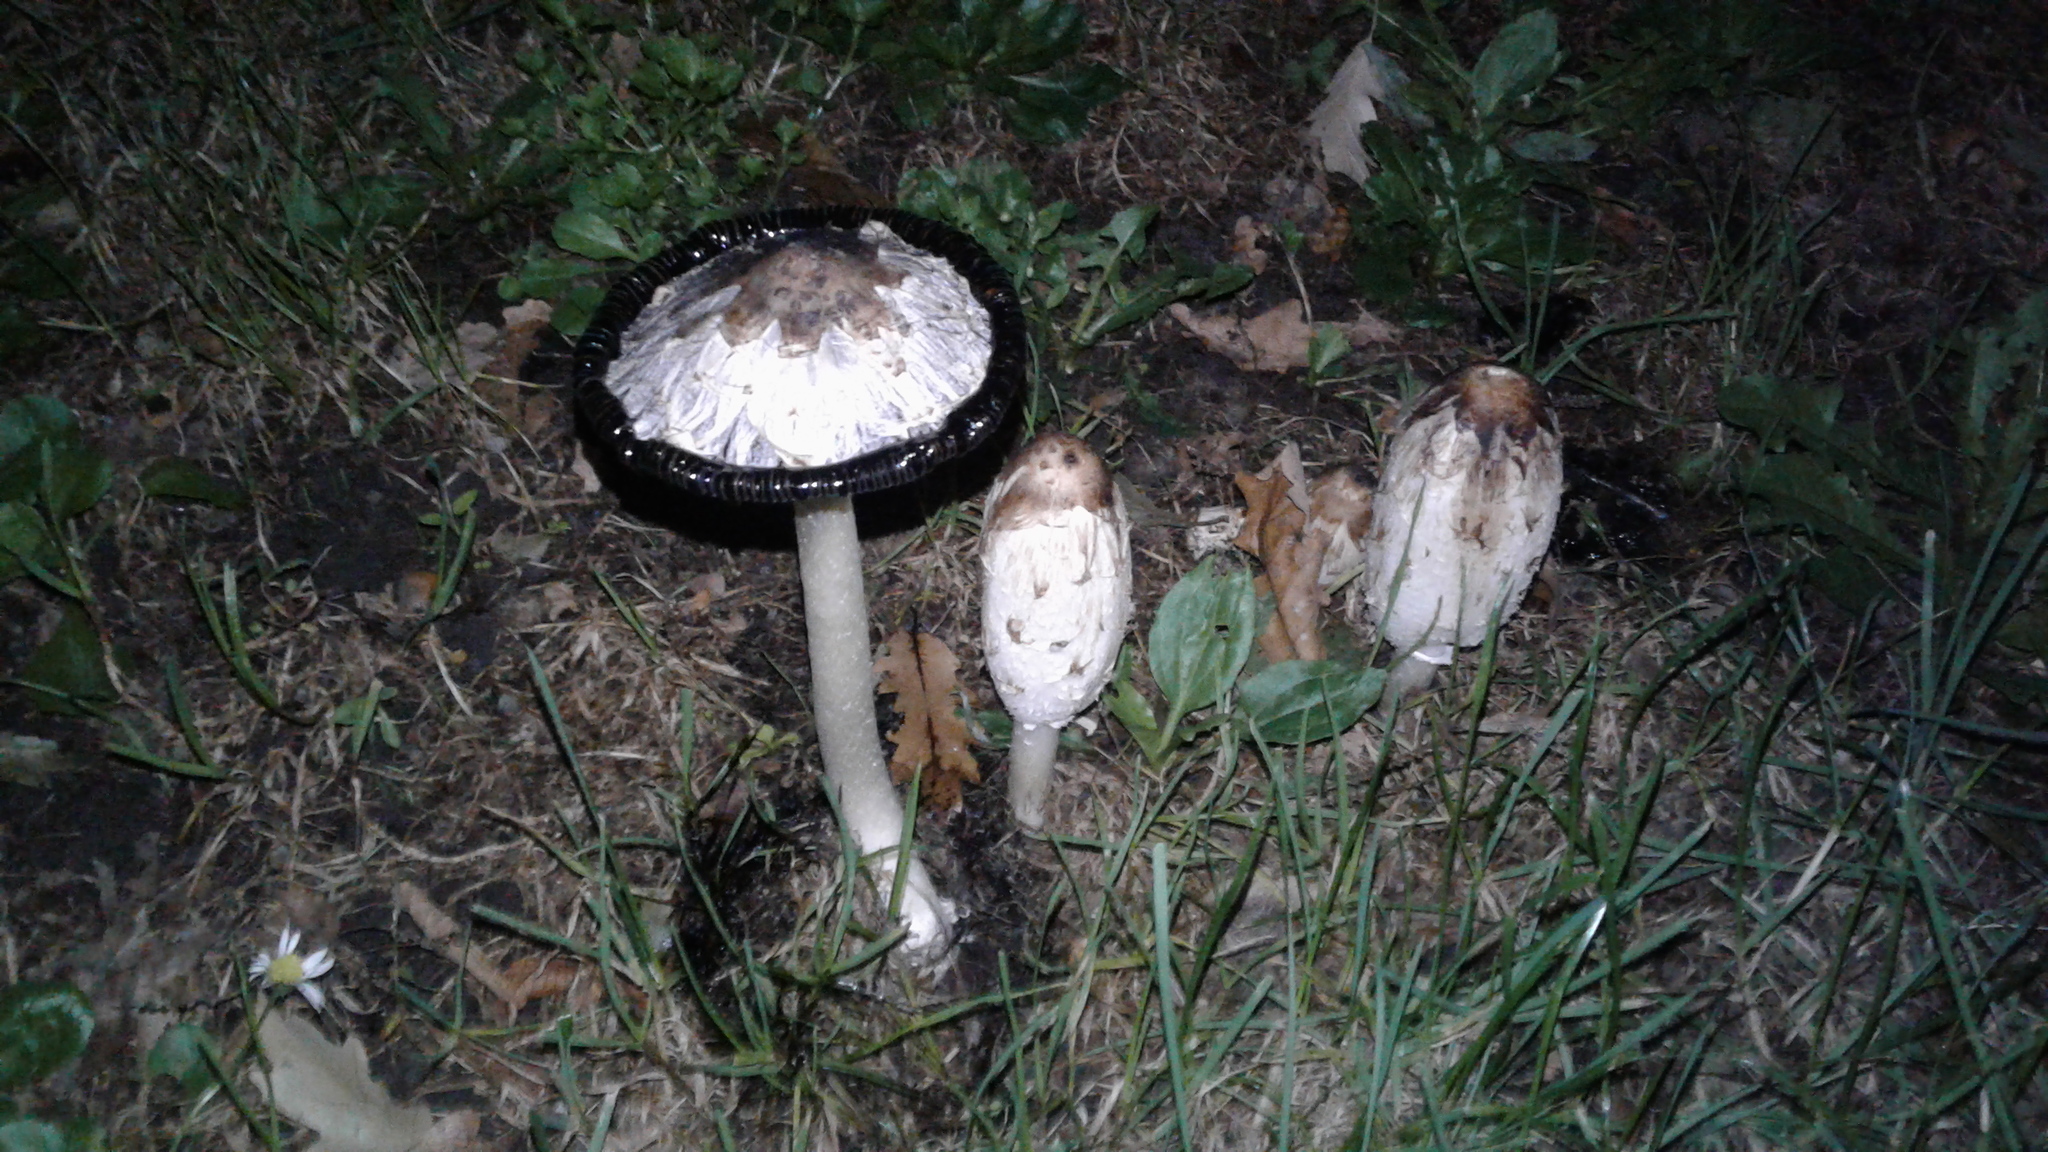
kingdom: Fungi
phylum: Basidiomycota
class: Agaricomycetes
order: Agaricales
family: Agaricaceae
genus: Coprinus
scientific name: Coprinus comatus
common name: Lawyer's wig
